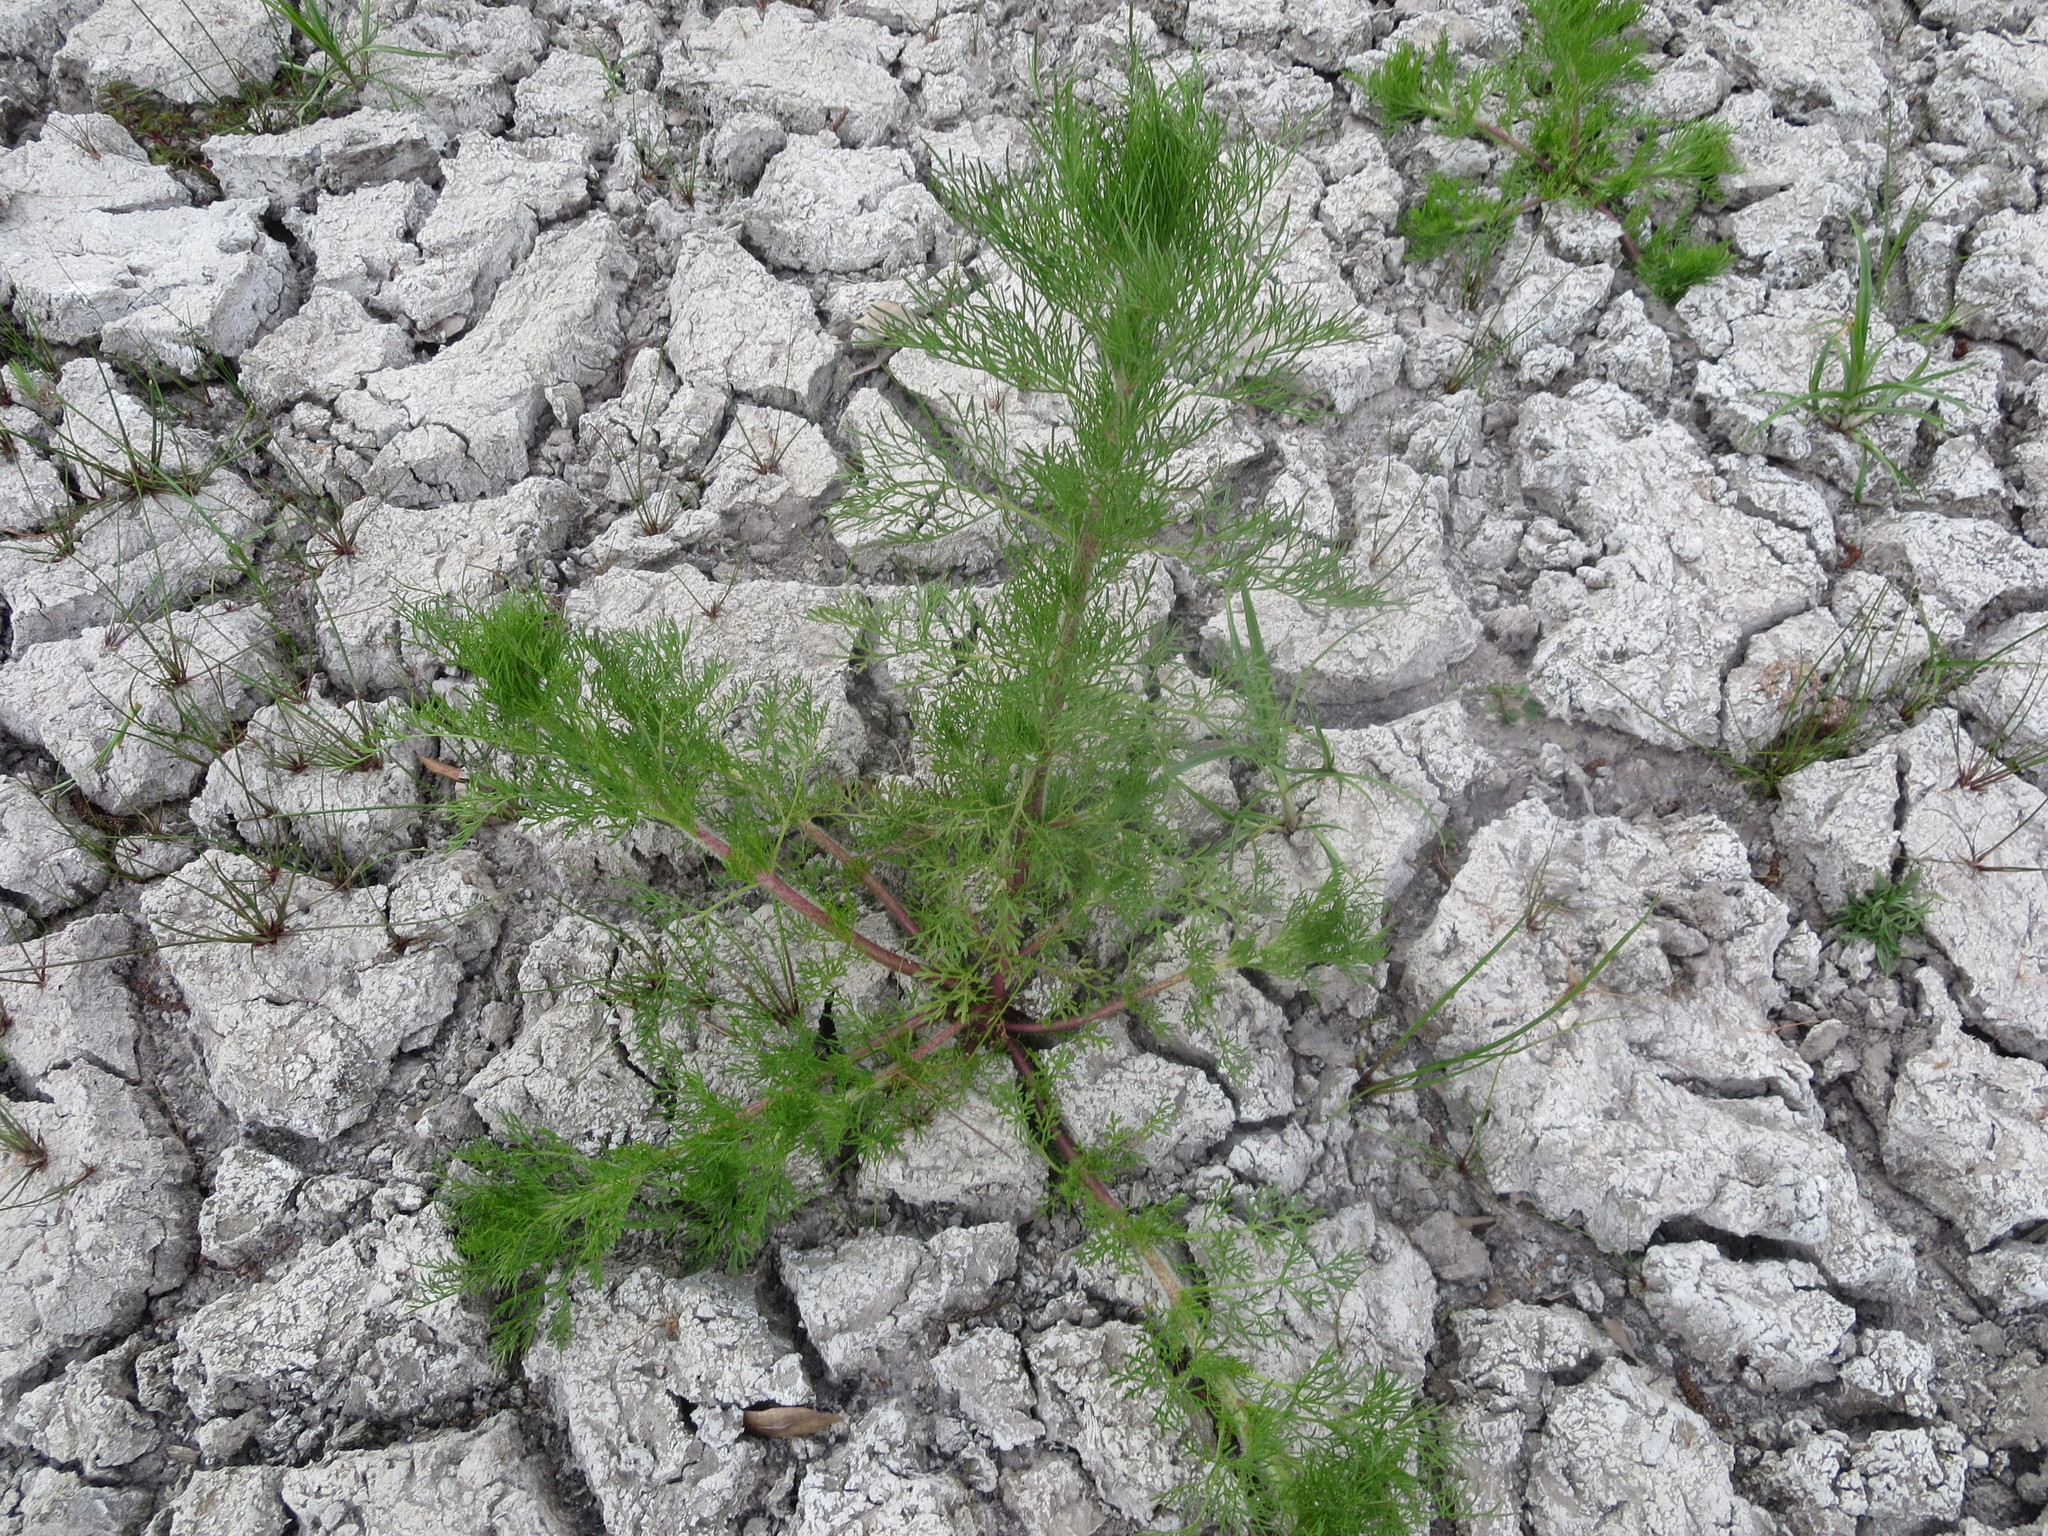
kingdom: Plantae
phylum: Tracheophyta
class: Magnoliopsida
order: Asterales
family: Asteraceae
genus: Eupatorium
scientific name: Eupatorium capillifolium
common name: Dog-fennel
